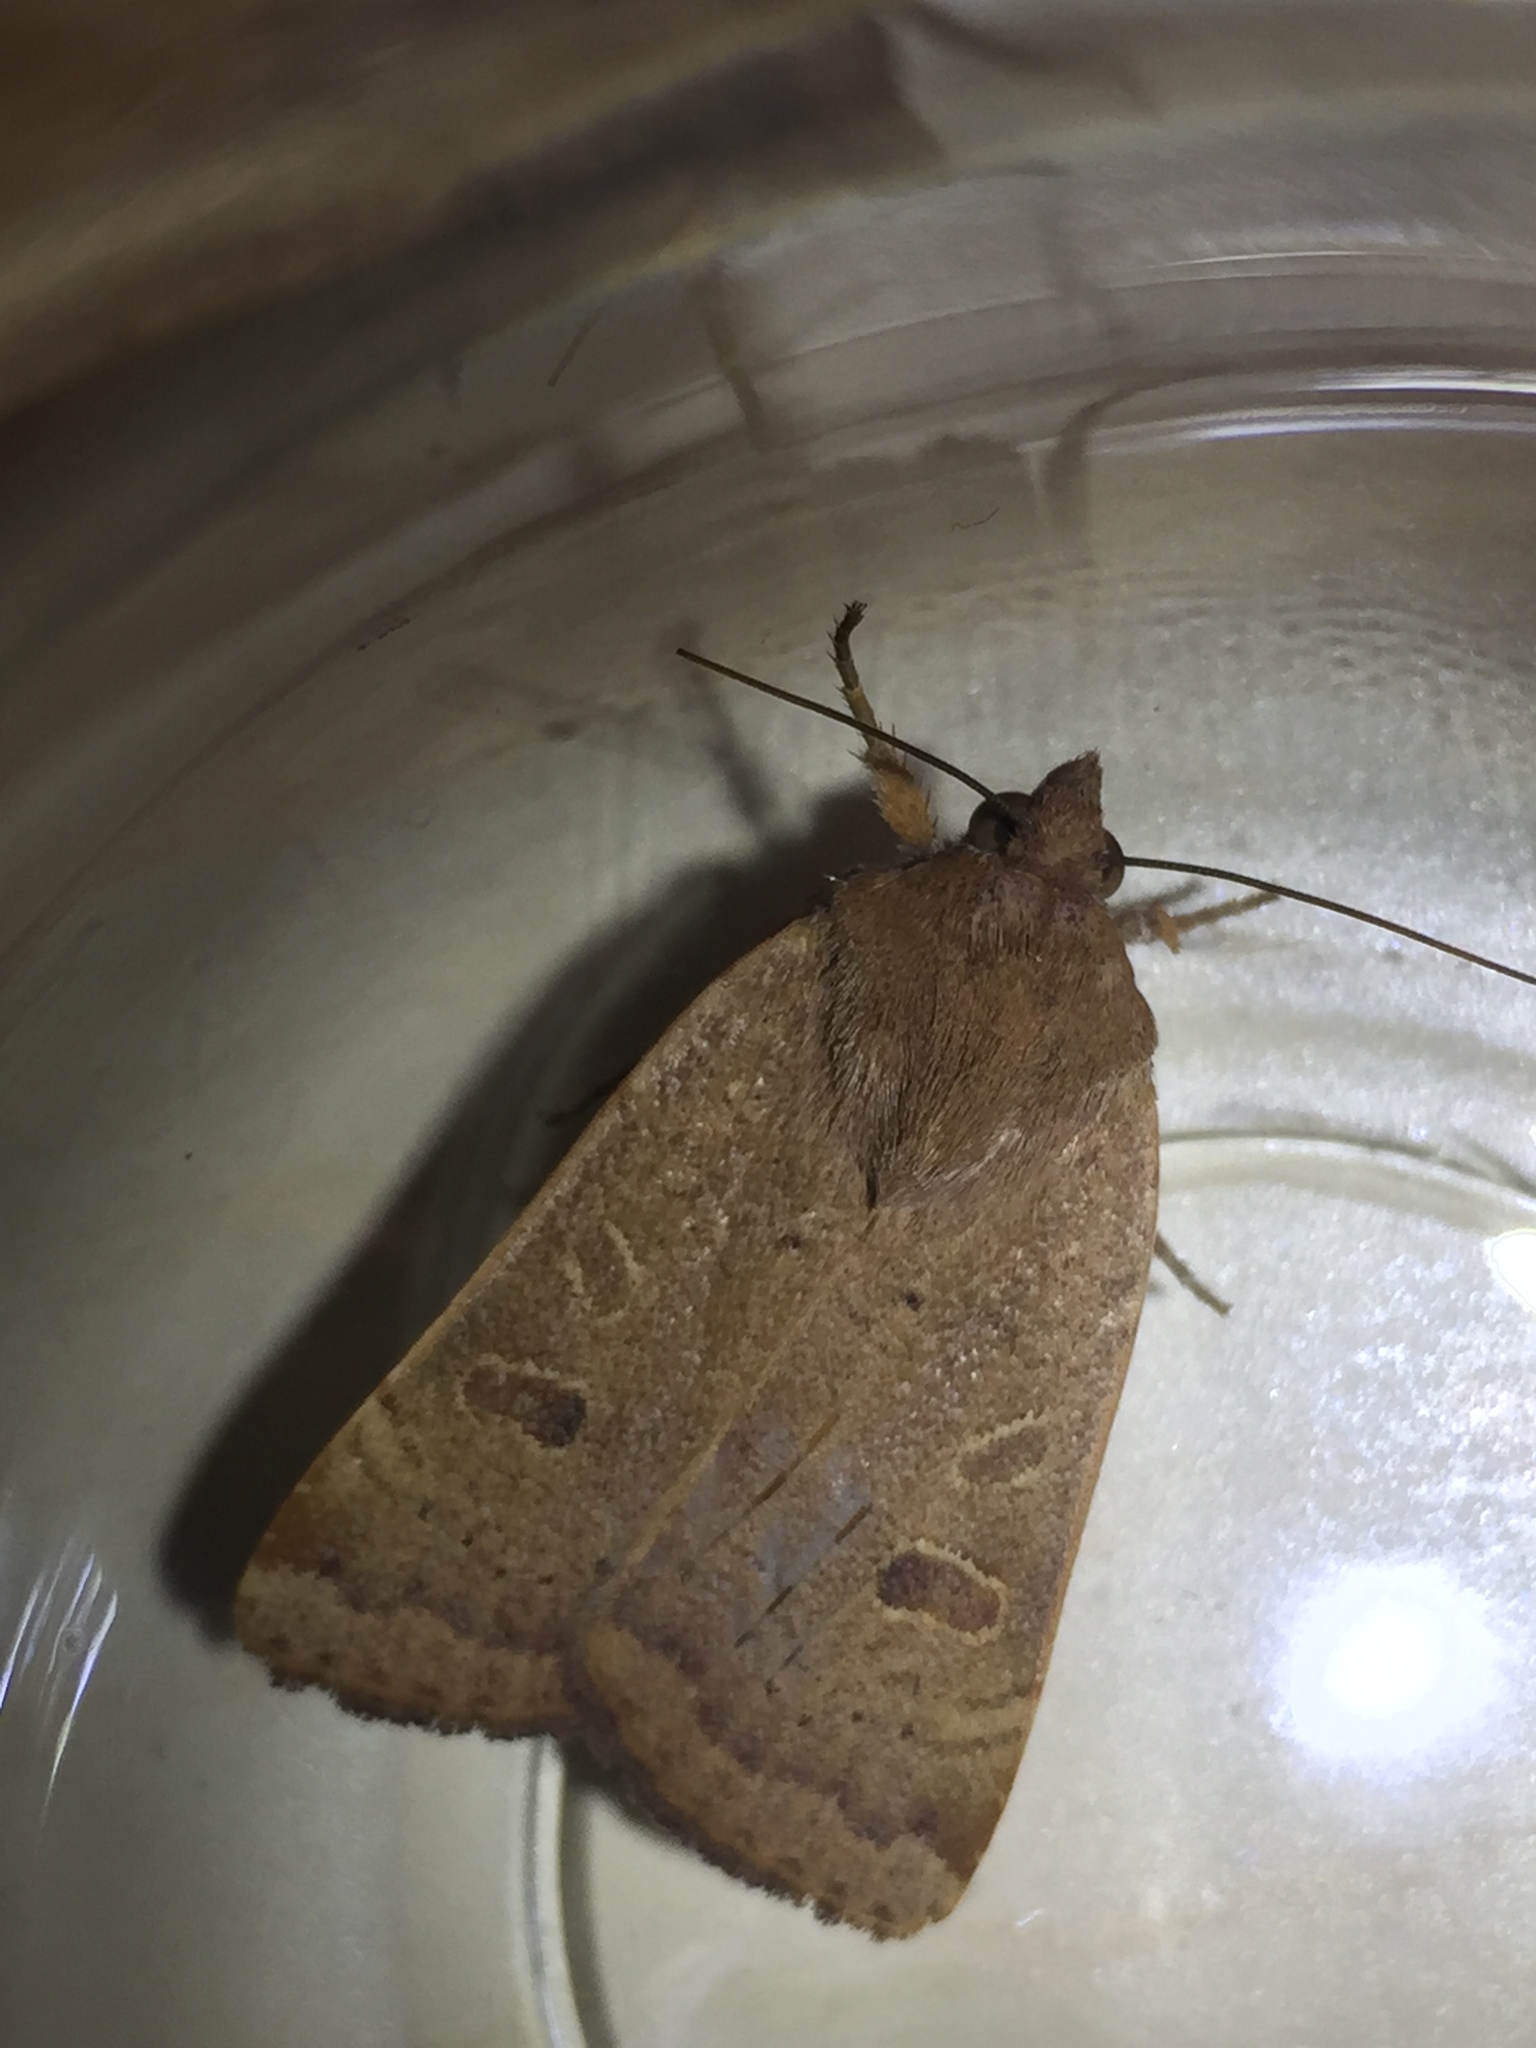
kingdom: Animalia
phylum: Arthropoda
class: Insecta
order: Lepidoptera
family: Noctuidae
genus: Noctua
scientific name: Noctua comes
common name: Lesser yellow underwing
